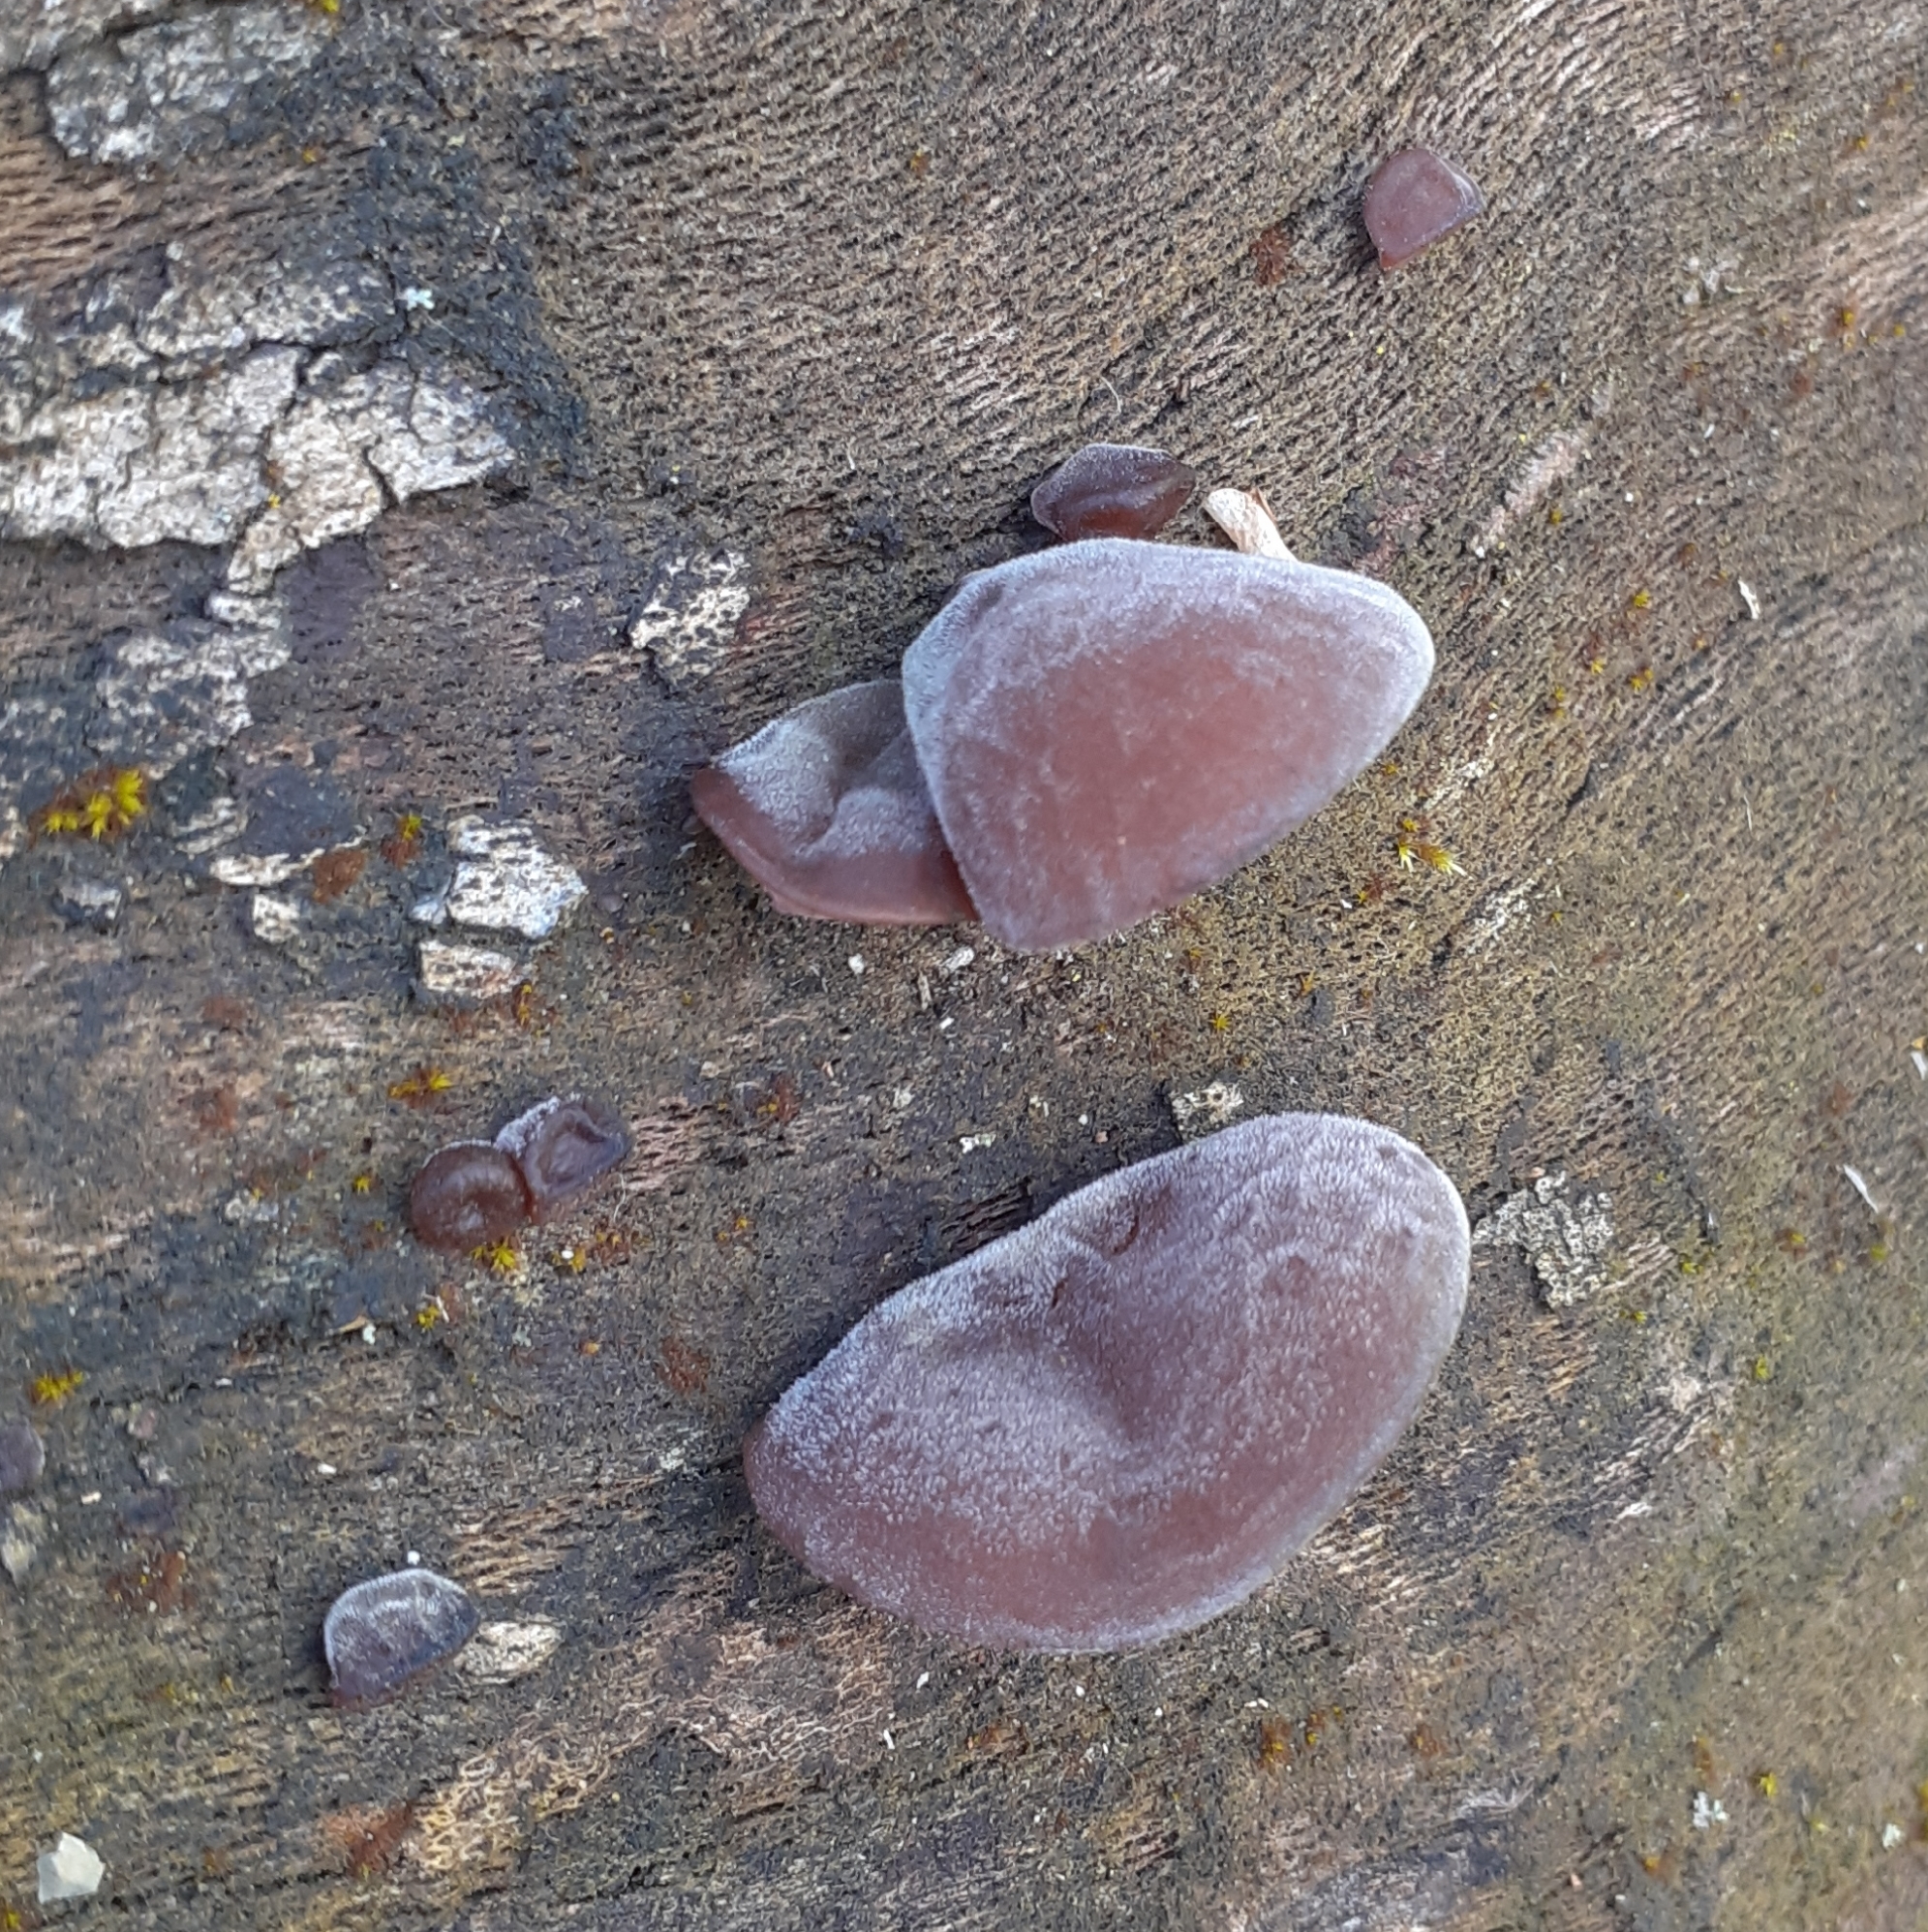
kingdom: Fungi
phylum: Basidiomycota
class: Agaricomycetes
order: Auriculariales
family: Auriculariaceae
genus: Auricularia
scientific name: Auricularia auricula-judae
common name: Jelly ear
